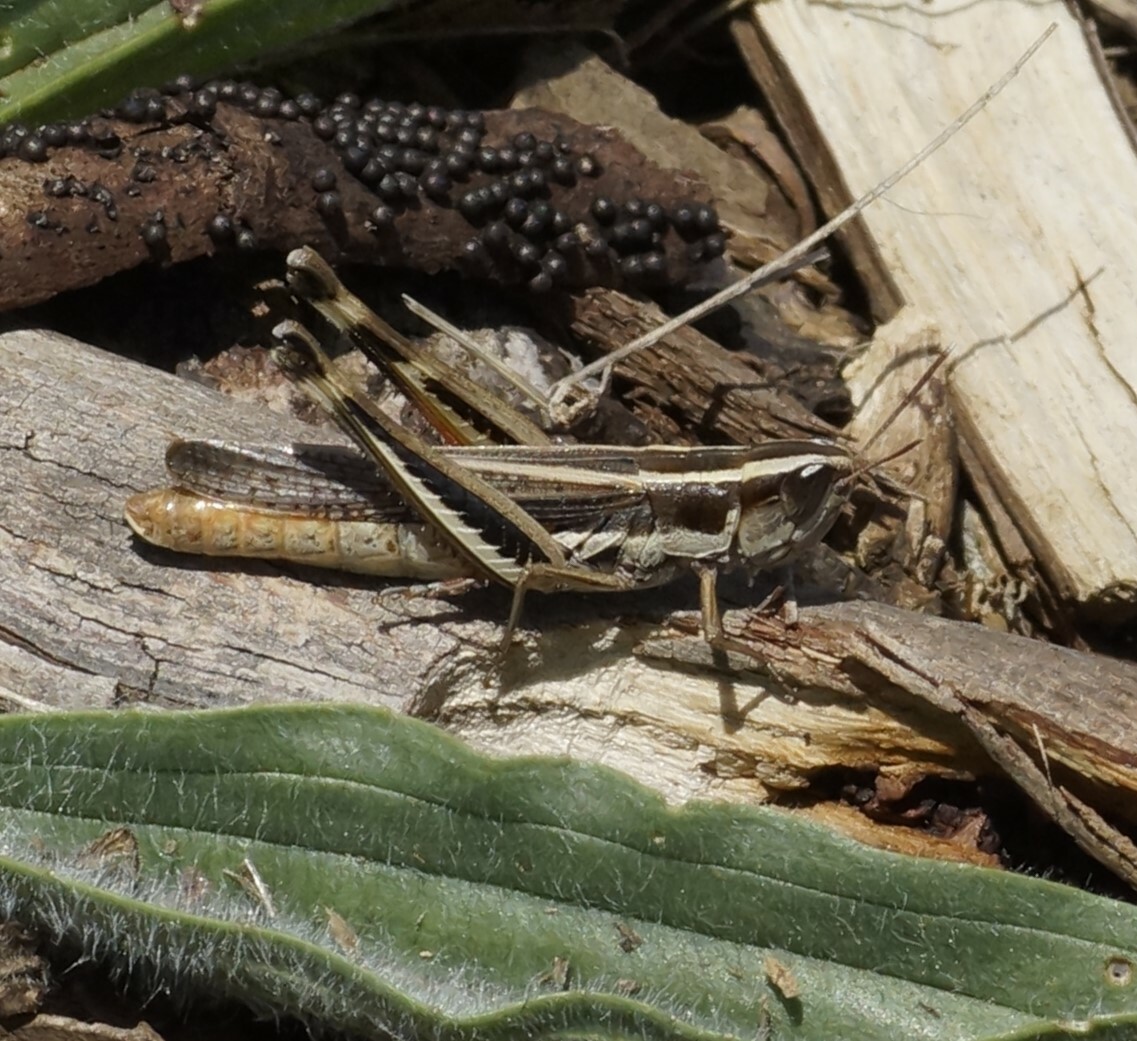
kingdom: Animalia
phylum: Arthropoda
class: Insecta
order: Orthoptera
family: Acrididae
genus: Macrotona
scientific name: Macrotona securiformis
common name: Inland macrotona
